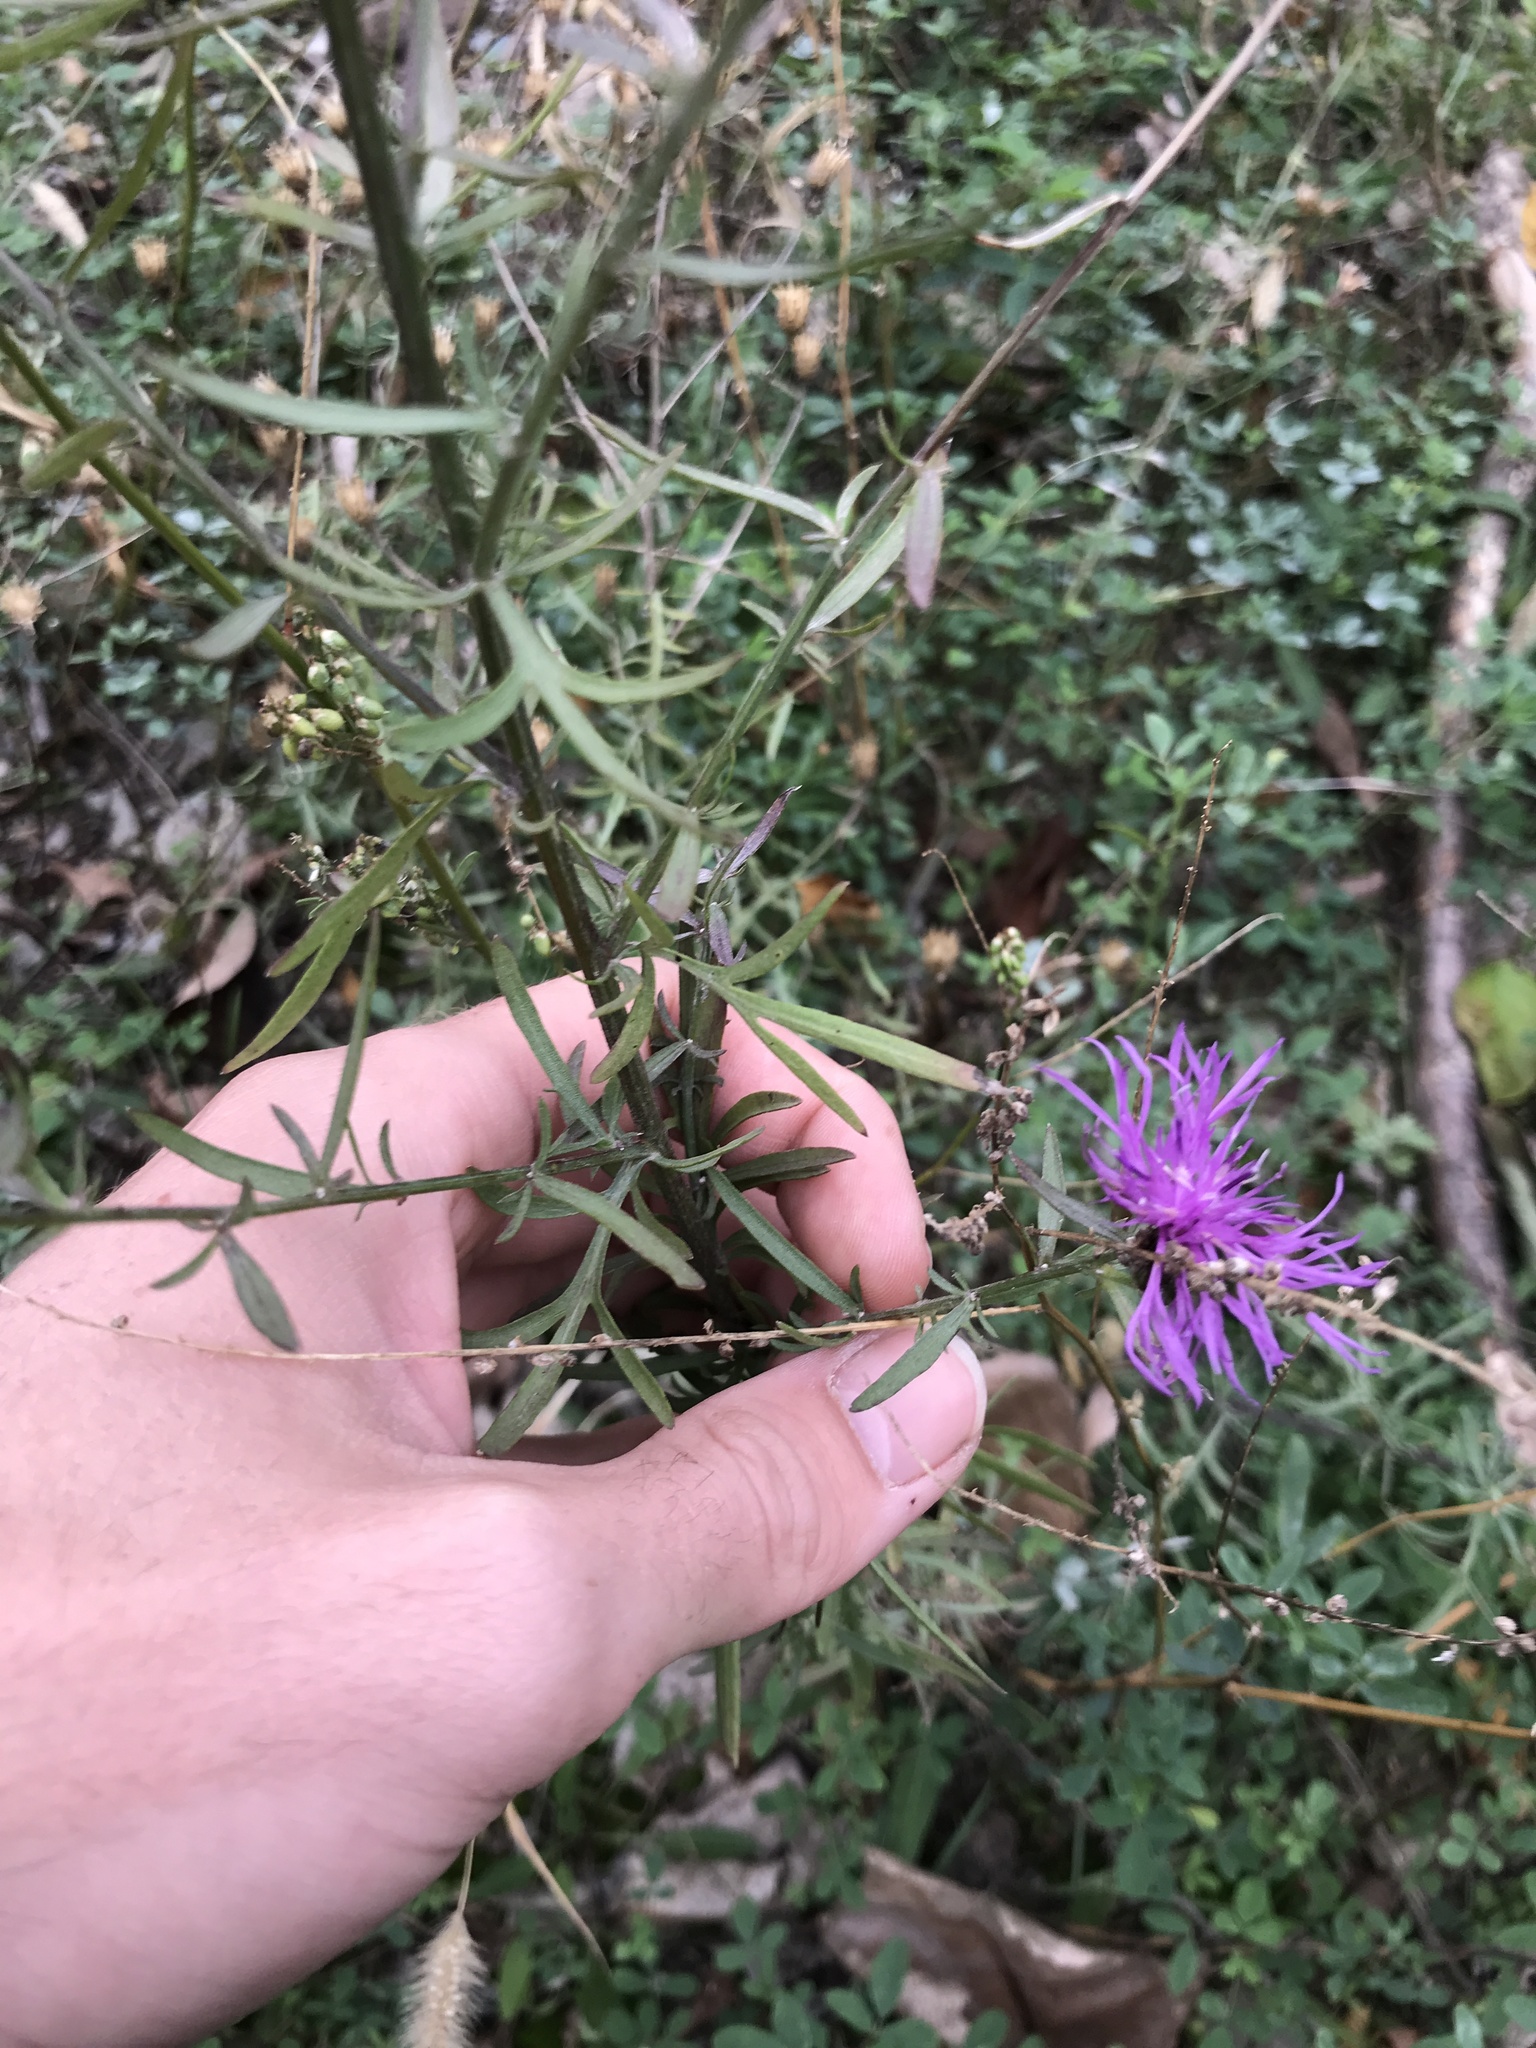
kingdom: Plantae
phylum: Tracheophyta
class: Magnoliopsida
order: Asterales
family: Asteraceae
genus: Centaurea
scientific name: Centaurea stoebe
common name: Spotted knapweed
